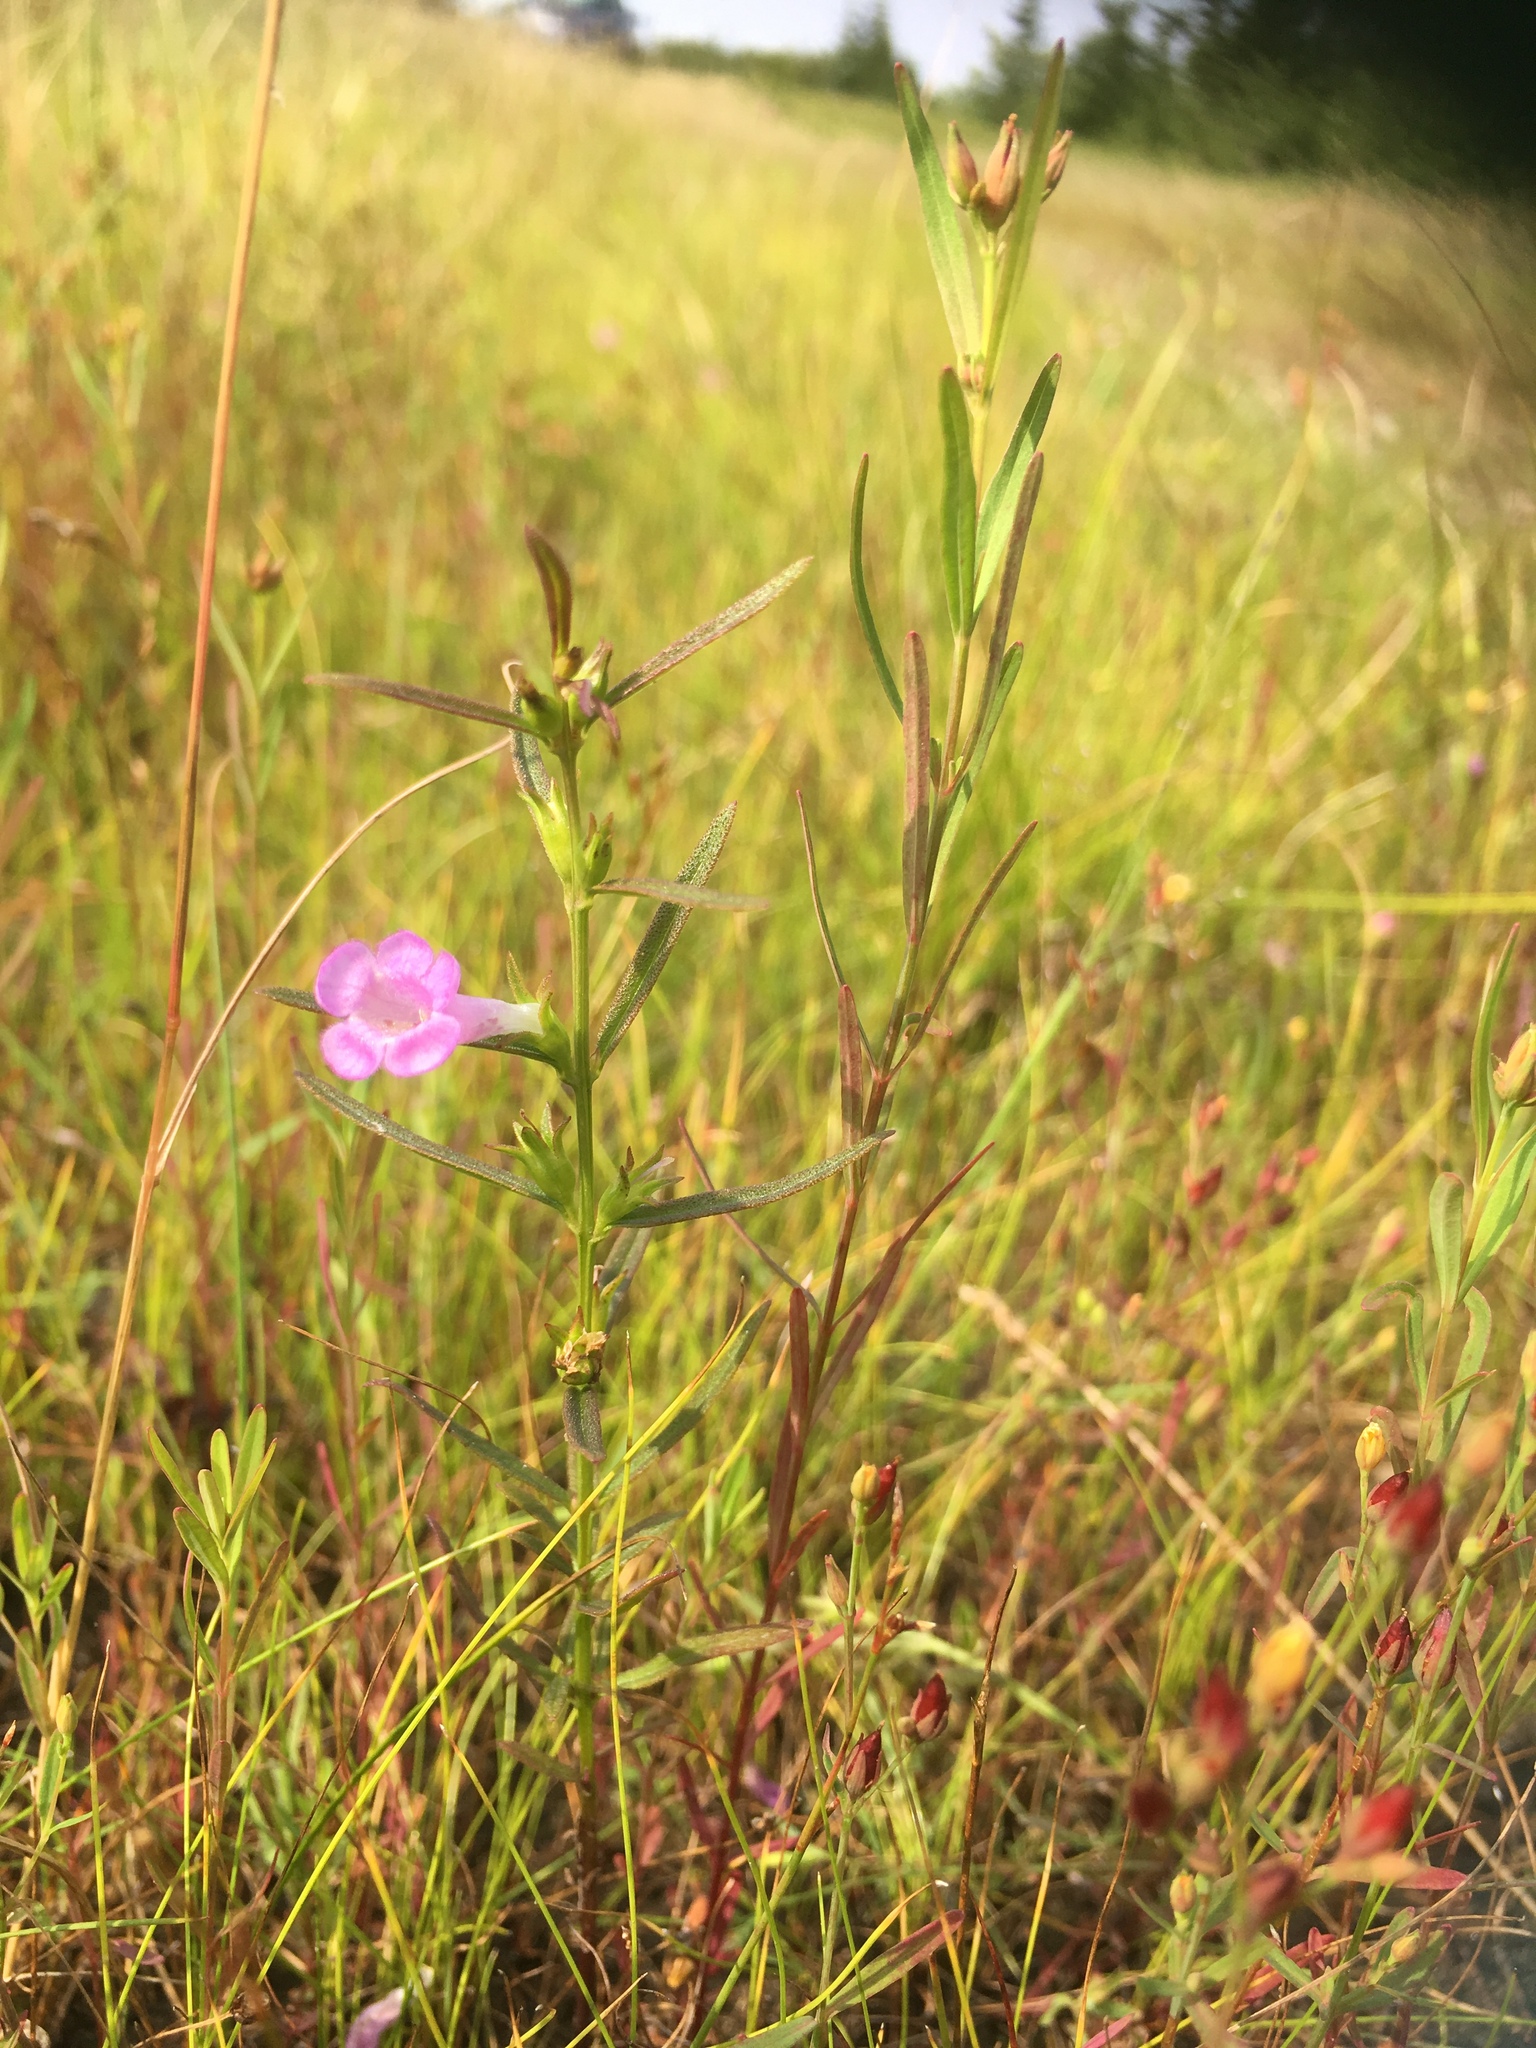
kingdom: Plantae
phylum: Tracheophyta
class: Magnoliopsida
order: Lamiales
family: Orobanchaceae
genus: Agalinis
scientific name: Agalinis neoscotica
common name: Middleton false foxglove
